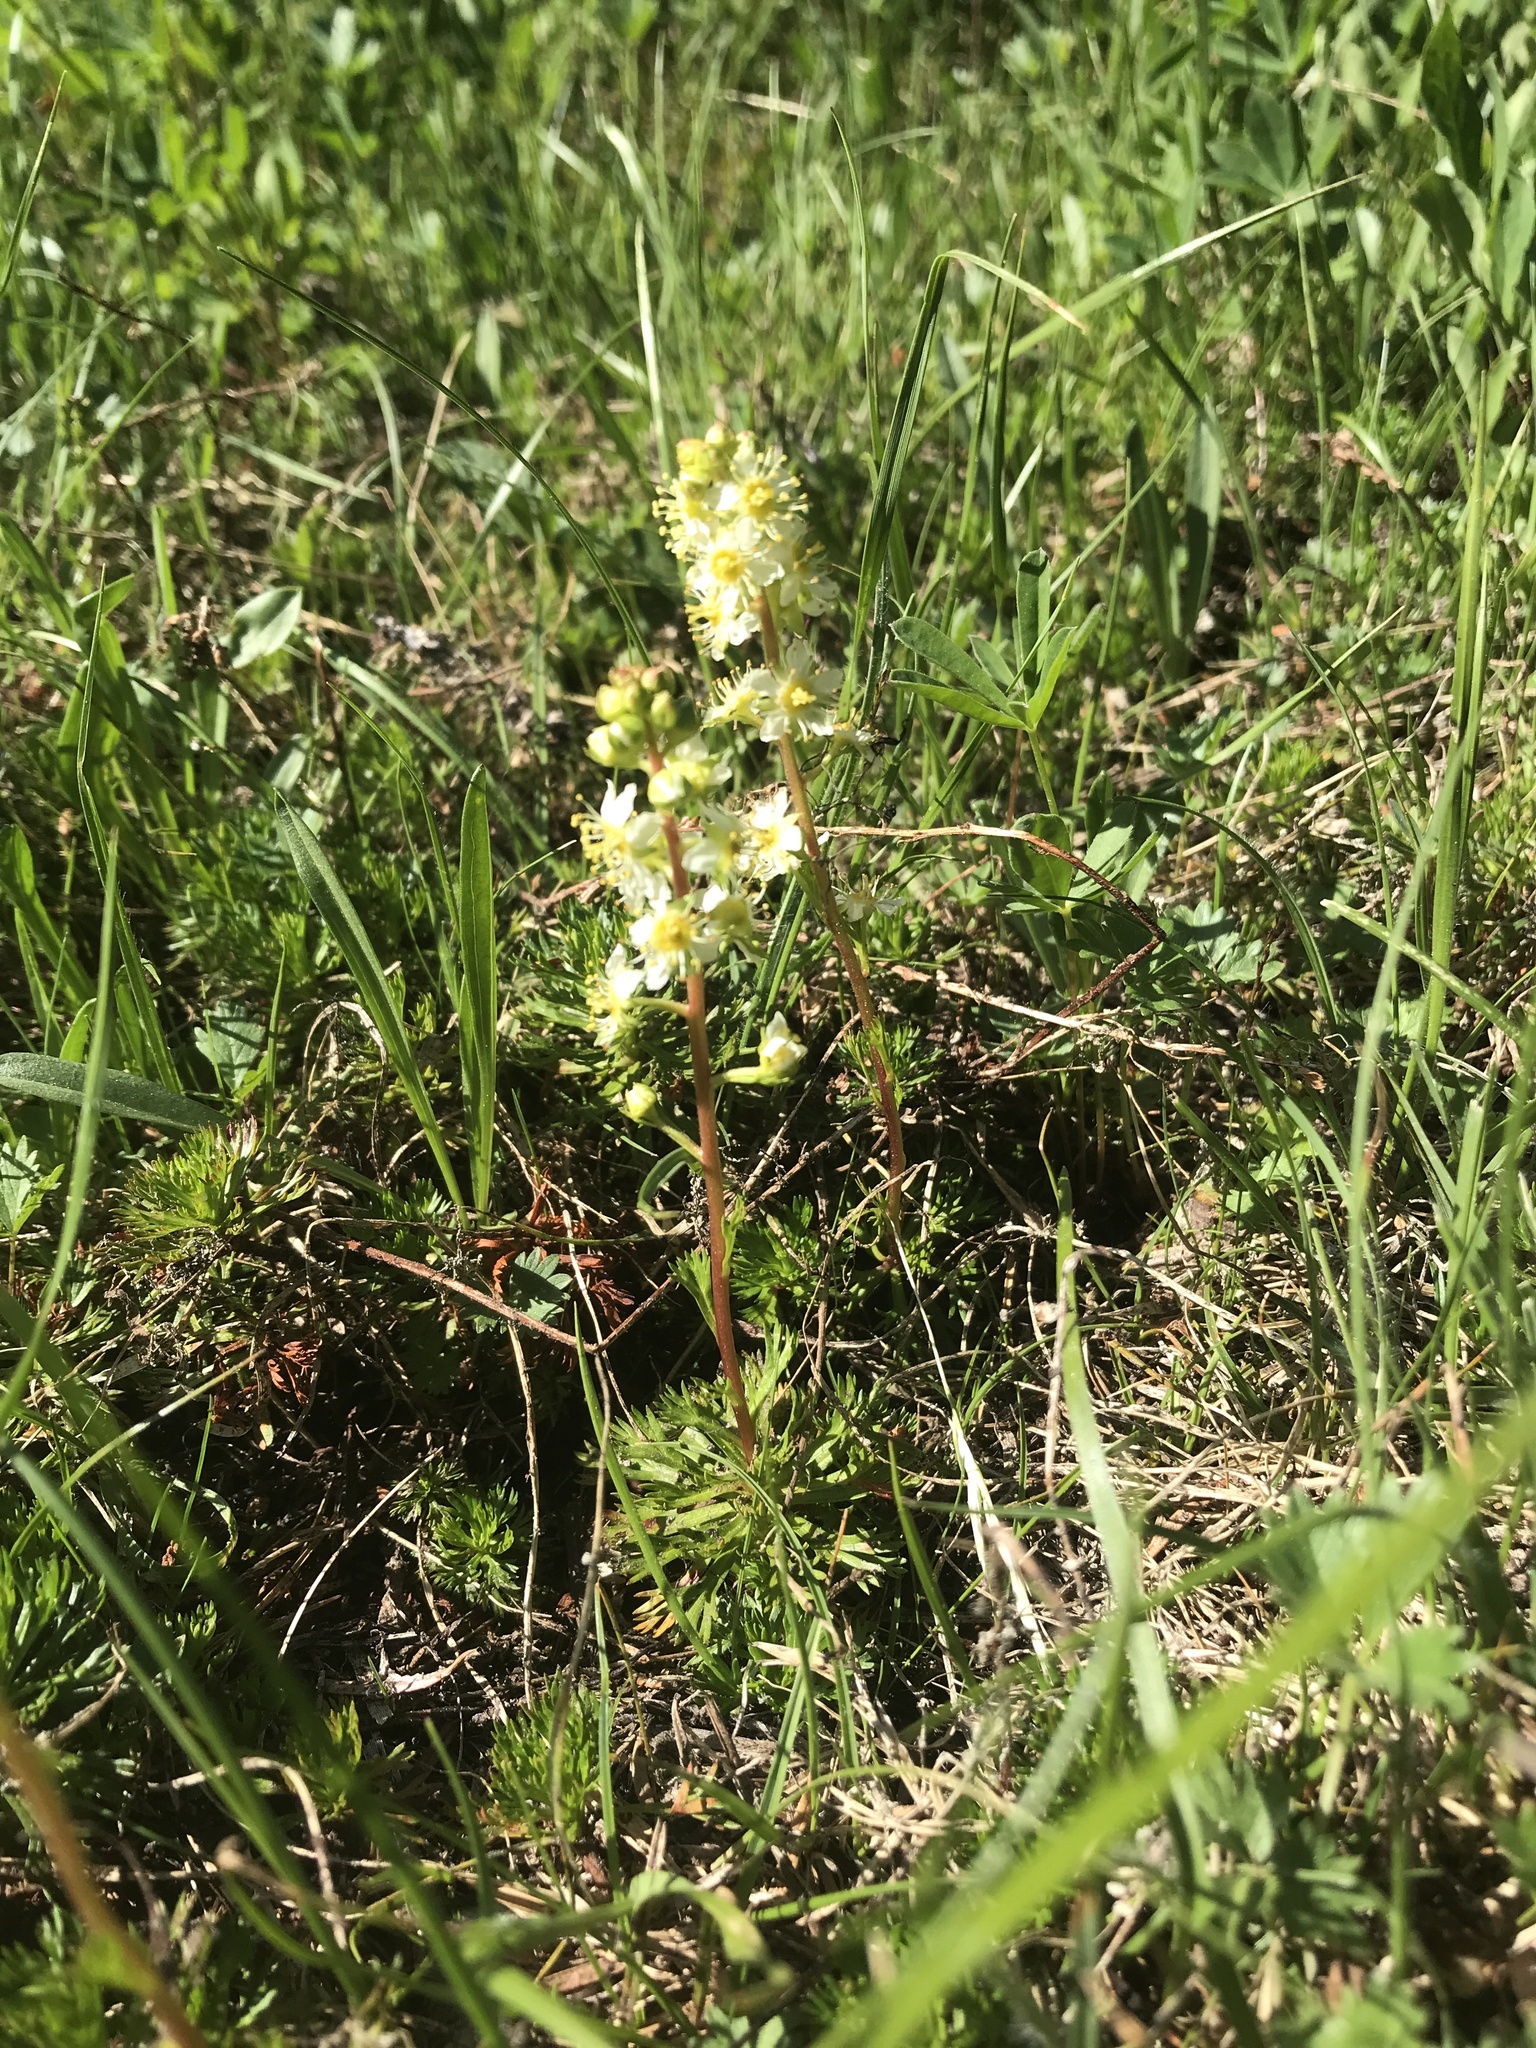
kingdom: Plantae
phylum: Tracheophyta
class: Magnoliopsida
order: Rosales
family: Rosaceae
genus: Luetkea
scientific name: Luetkea pectinata
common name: Partridgefoot
